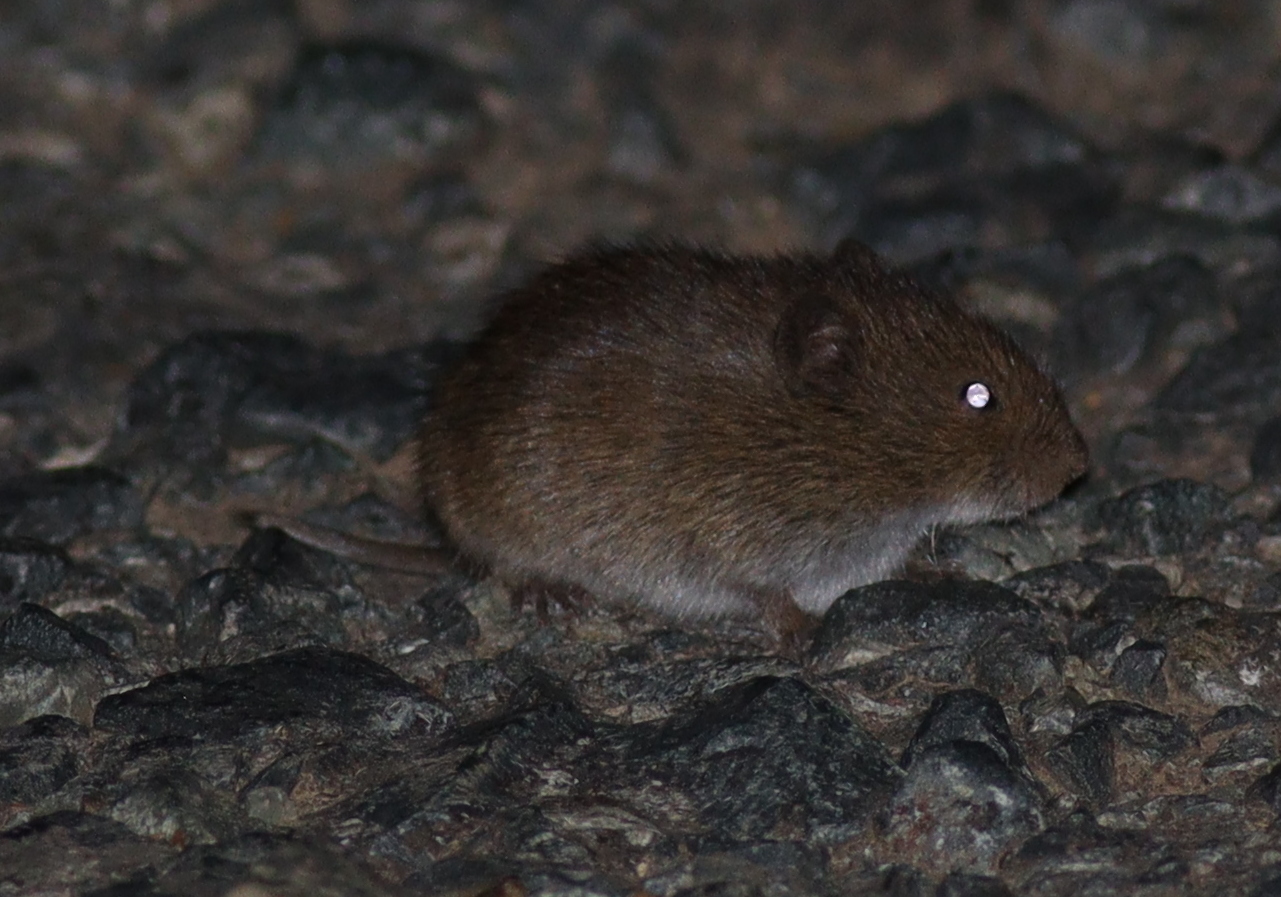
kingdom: Animalia
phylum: Chordata
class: Mammalia
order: Rodentia
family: Cricetidae
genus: Microtus
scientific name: Microtus arvalis
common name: Common vole
